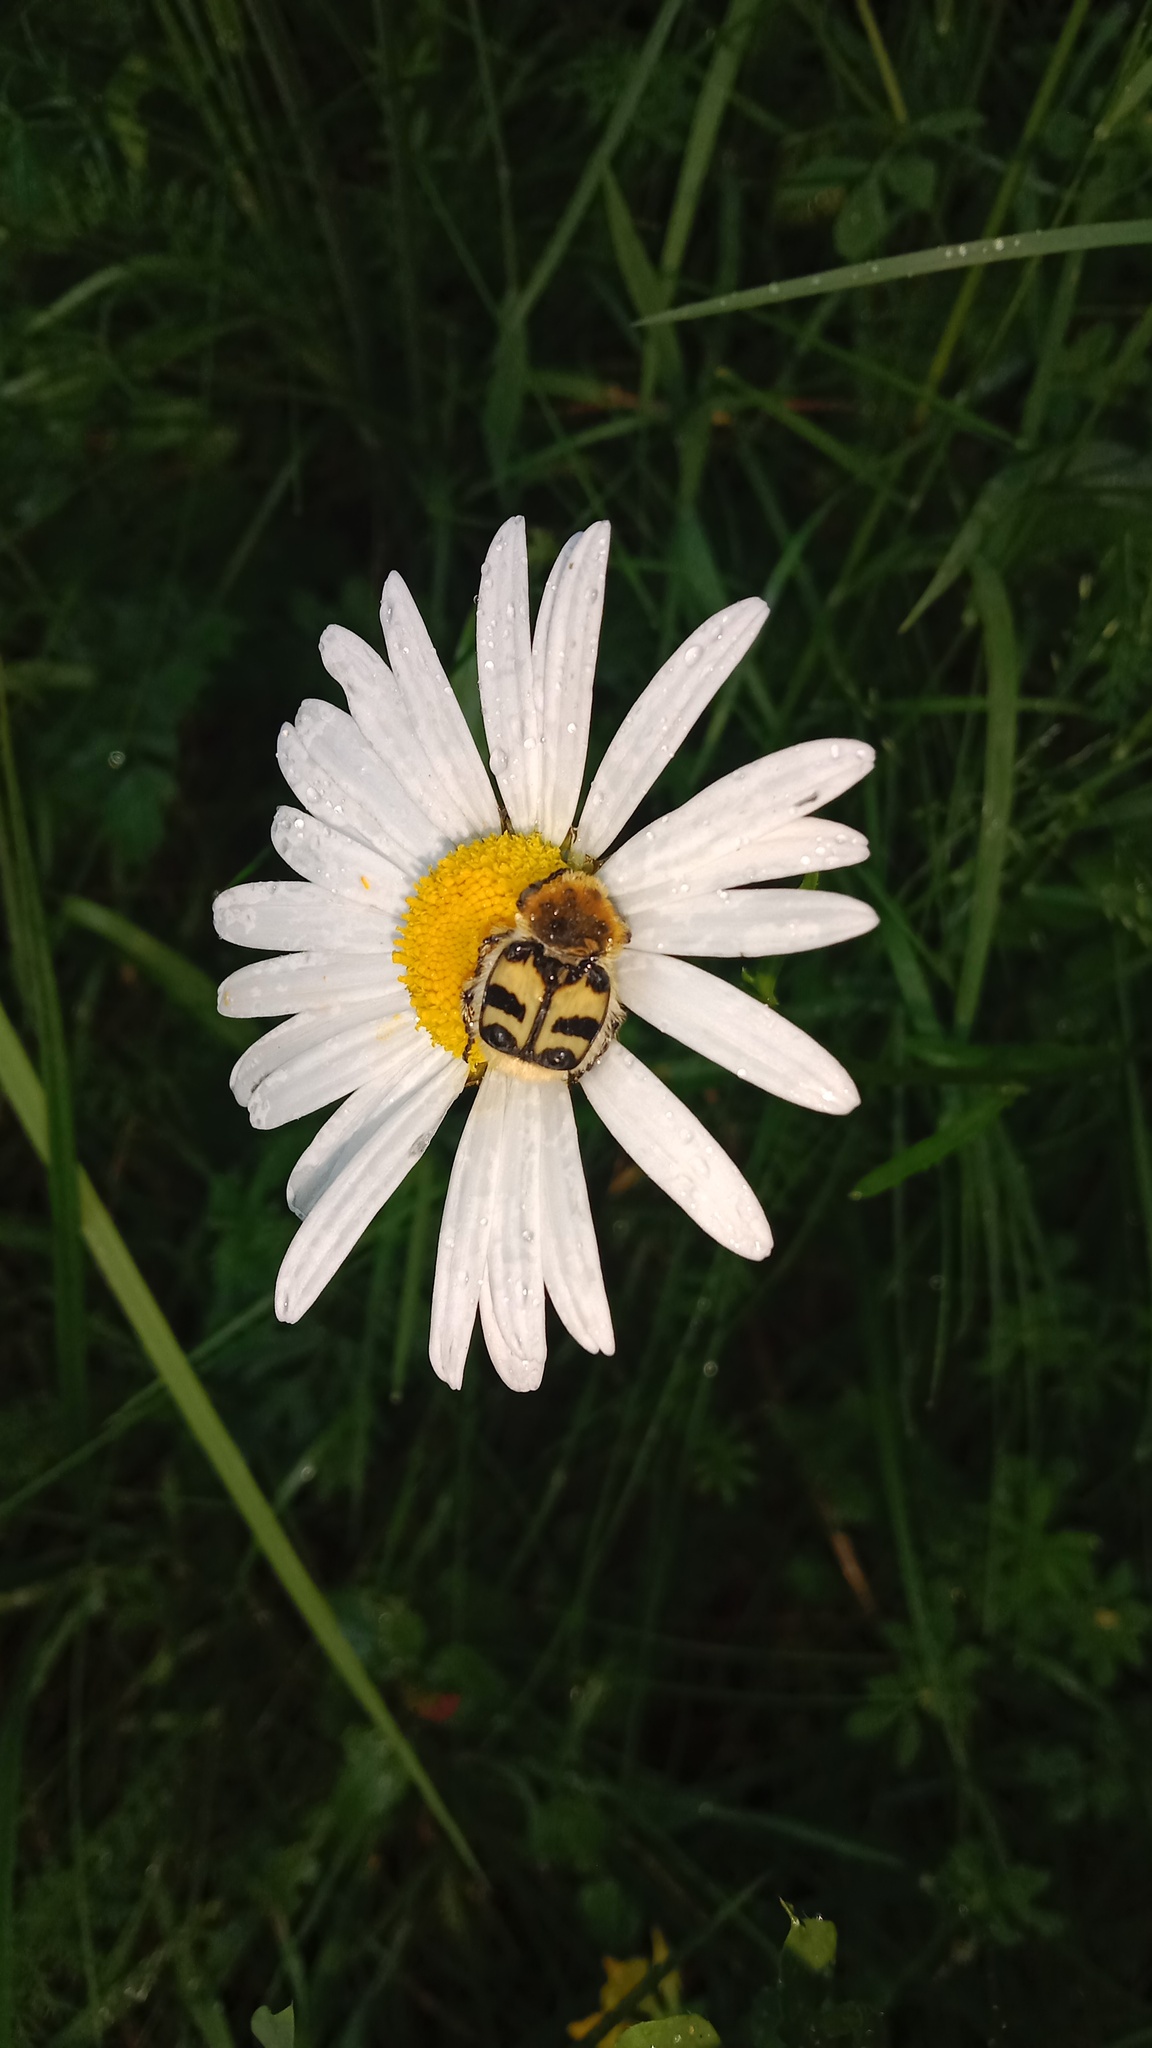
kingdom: Animalia
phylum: Arthropoda
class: Insecta
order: Coleoptera
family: Scarabaeidae
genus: Trichius
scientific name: Trichius fasciatus
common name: Bee beetle
